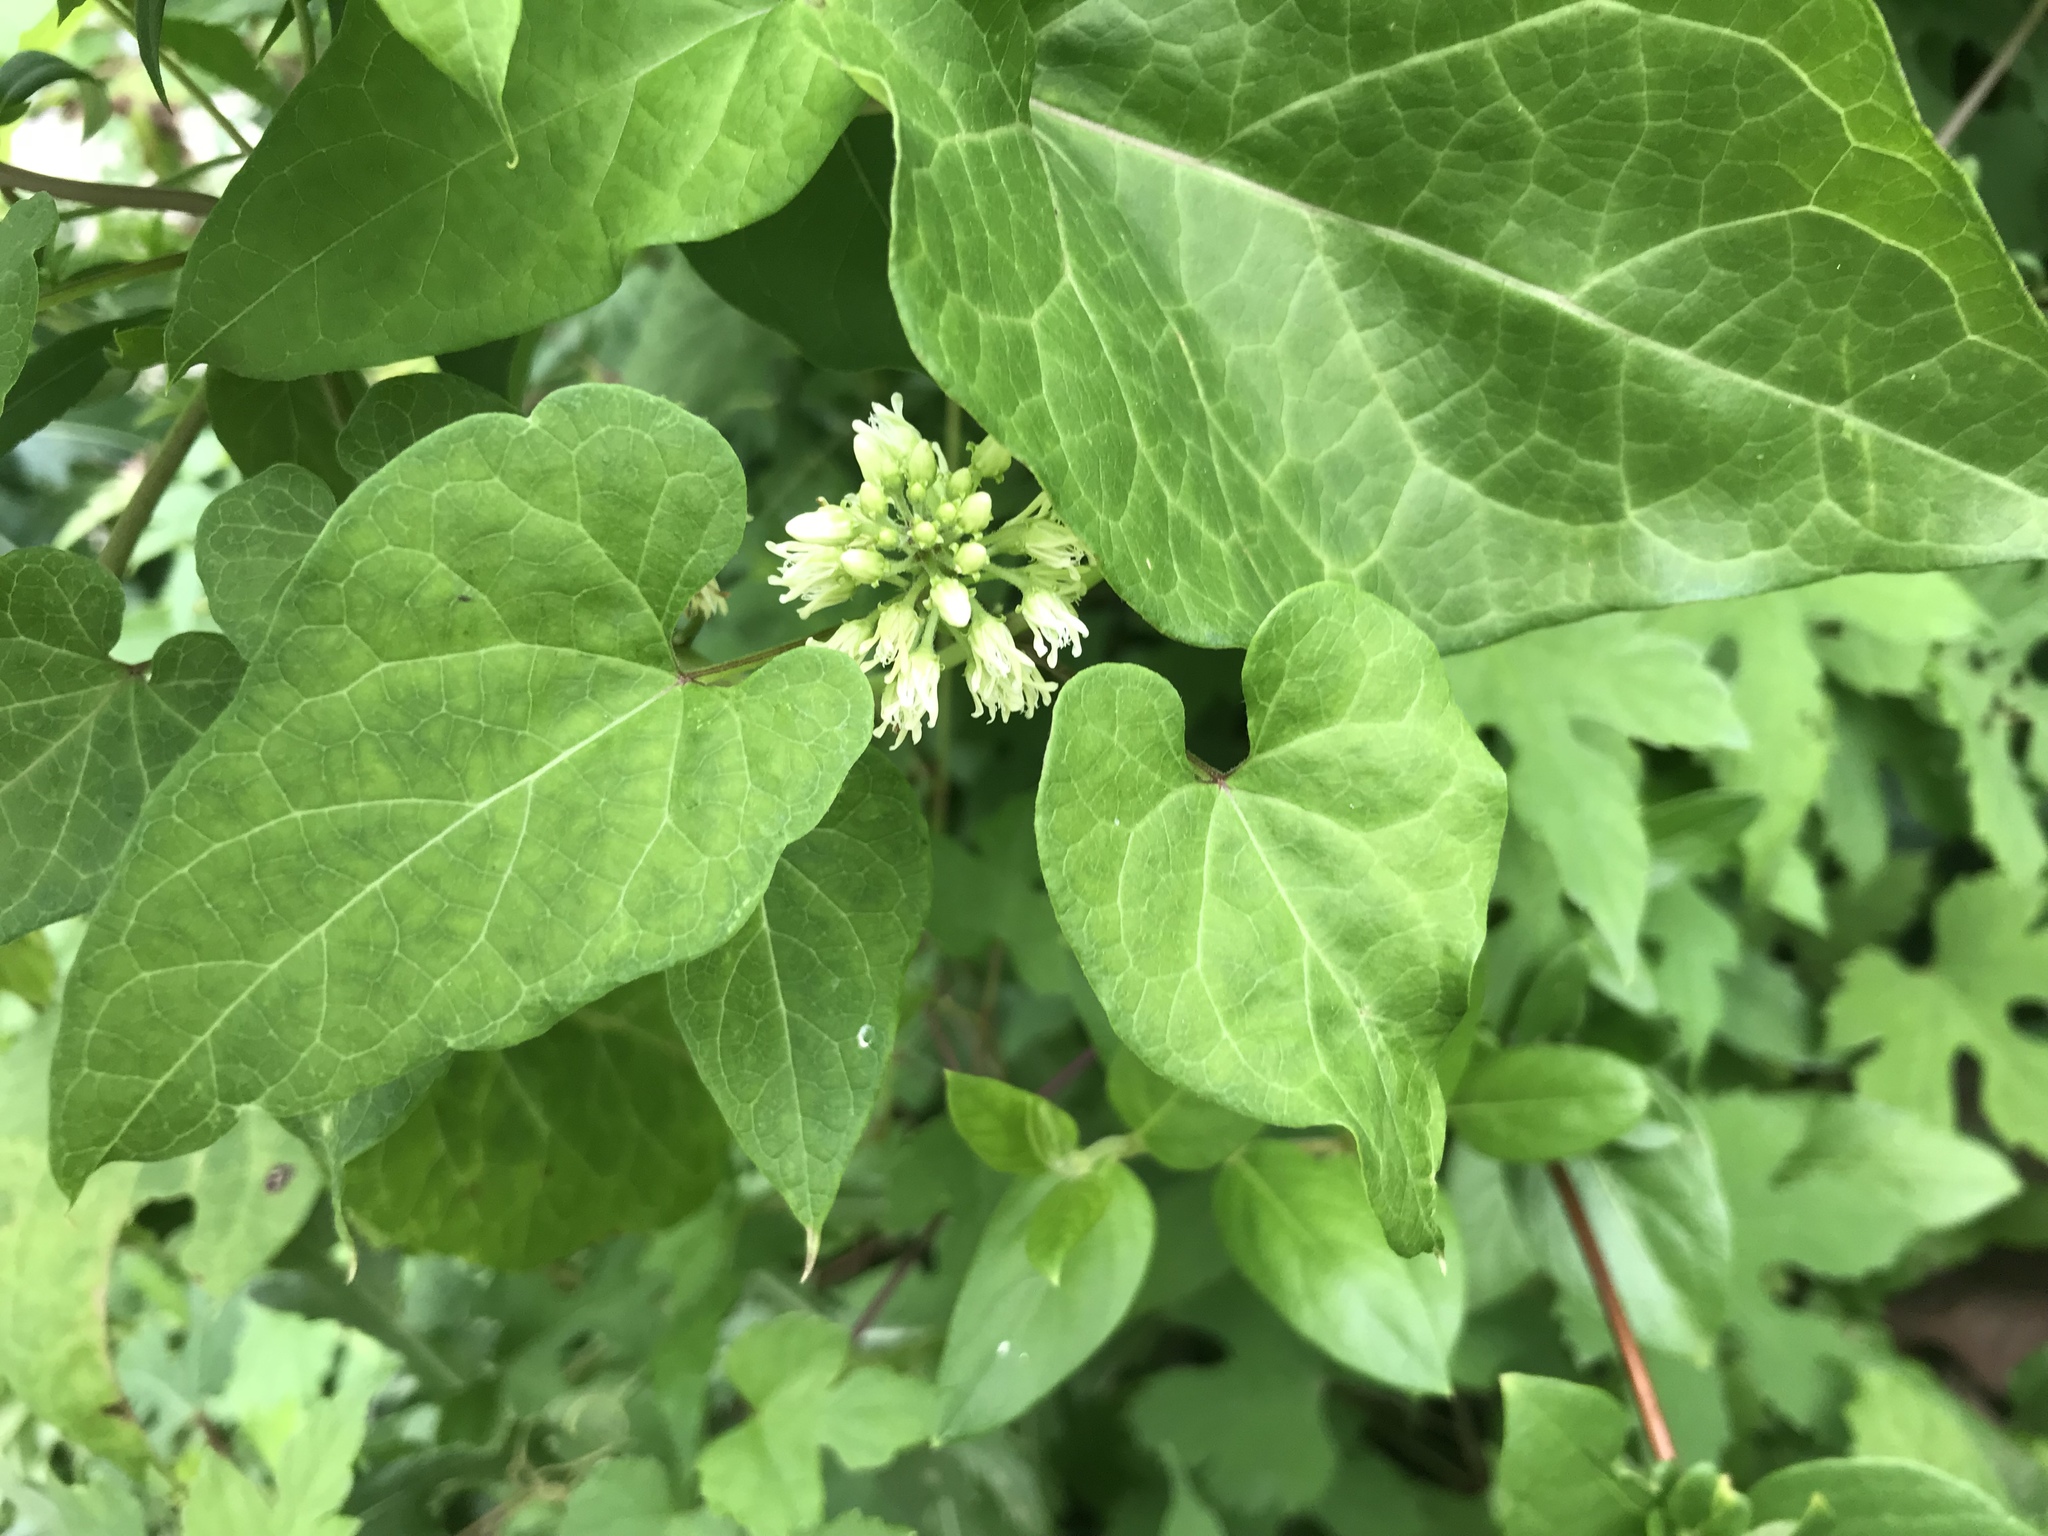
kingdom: Plantae
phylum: Tracheophyta
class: Magnoliopsida
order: Gentianales
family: Apocynaceae
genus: Cynanchum
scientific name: Cynanchum laeve
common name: Sandvine
